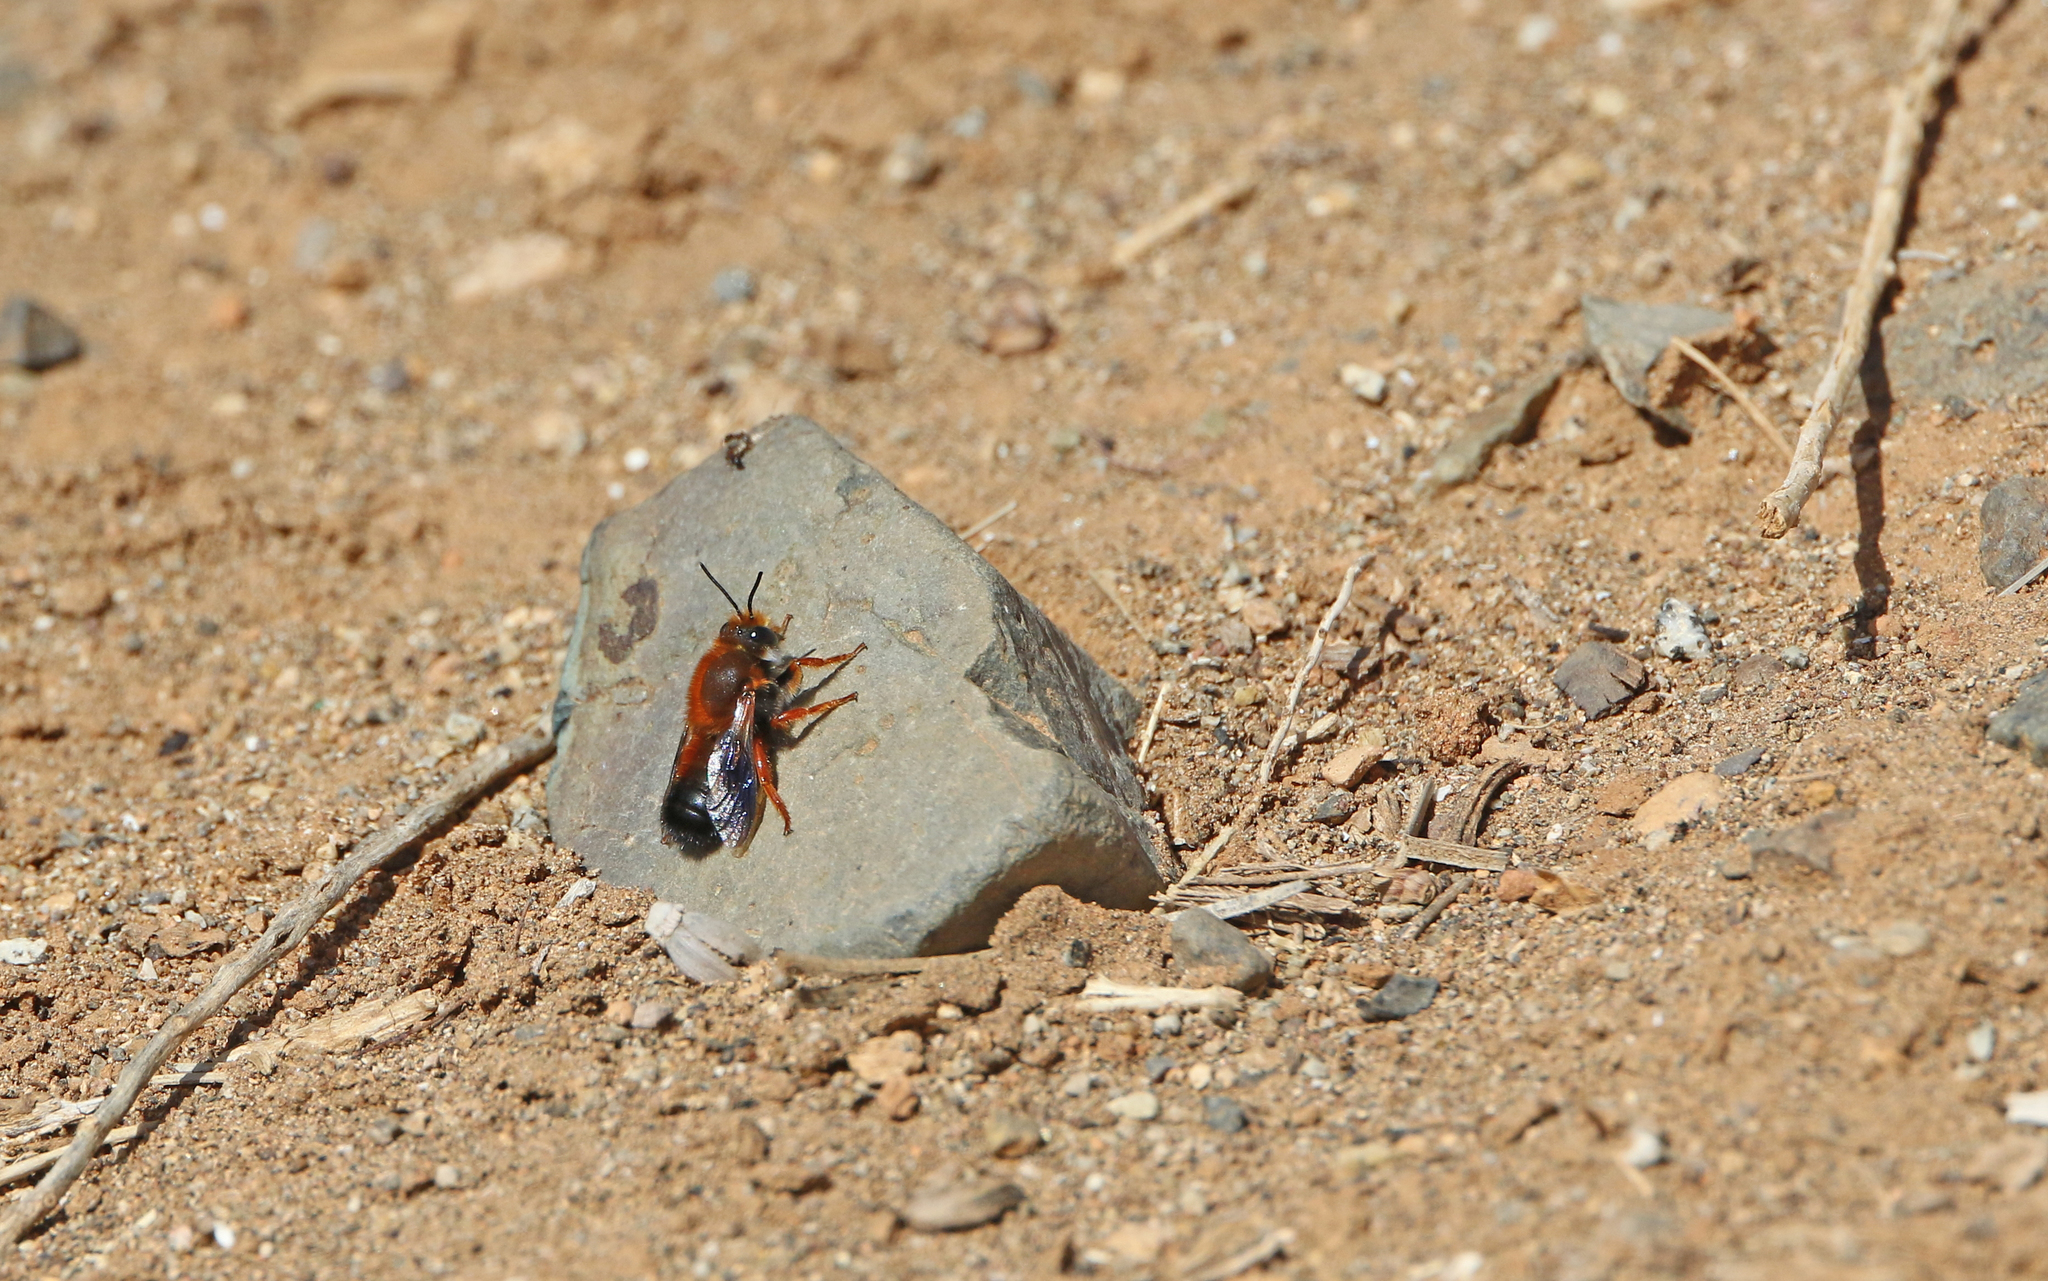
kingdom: Animalia
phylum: Arthropoda
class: Insecta
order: Hymenoptera
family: Megachilidae
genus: Megachile
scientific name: Megachile sicula
